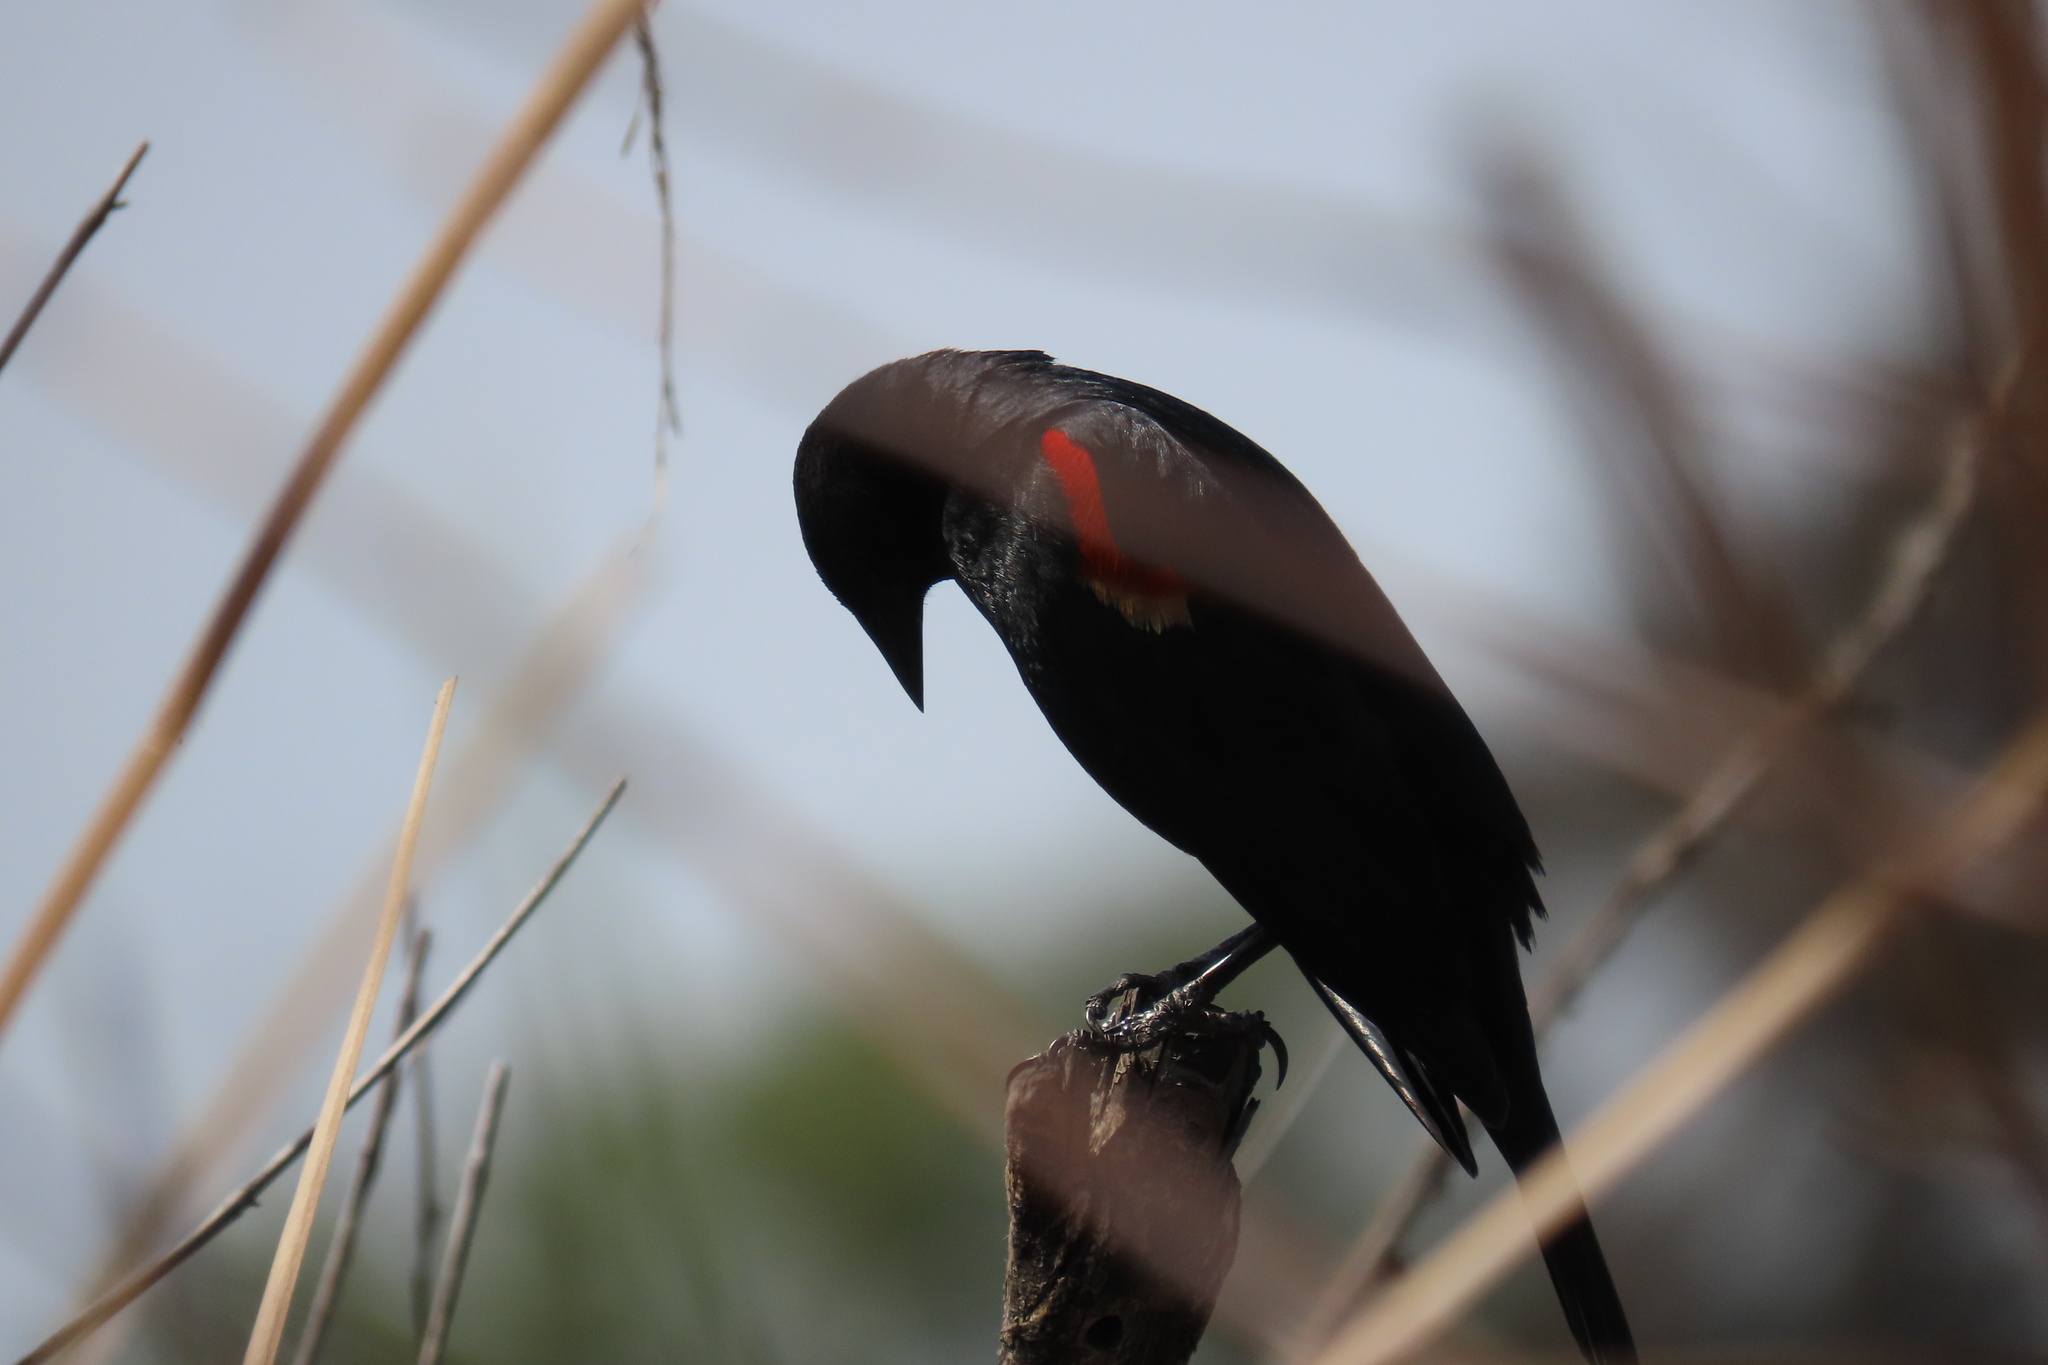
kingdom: Animalia
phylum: Chordata
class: Aves
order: Passeriformes
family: Icteridae
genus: Agelaius
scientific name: Agelaius phoeniceus
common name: Red-winged blackbird
